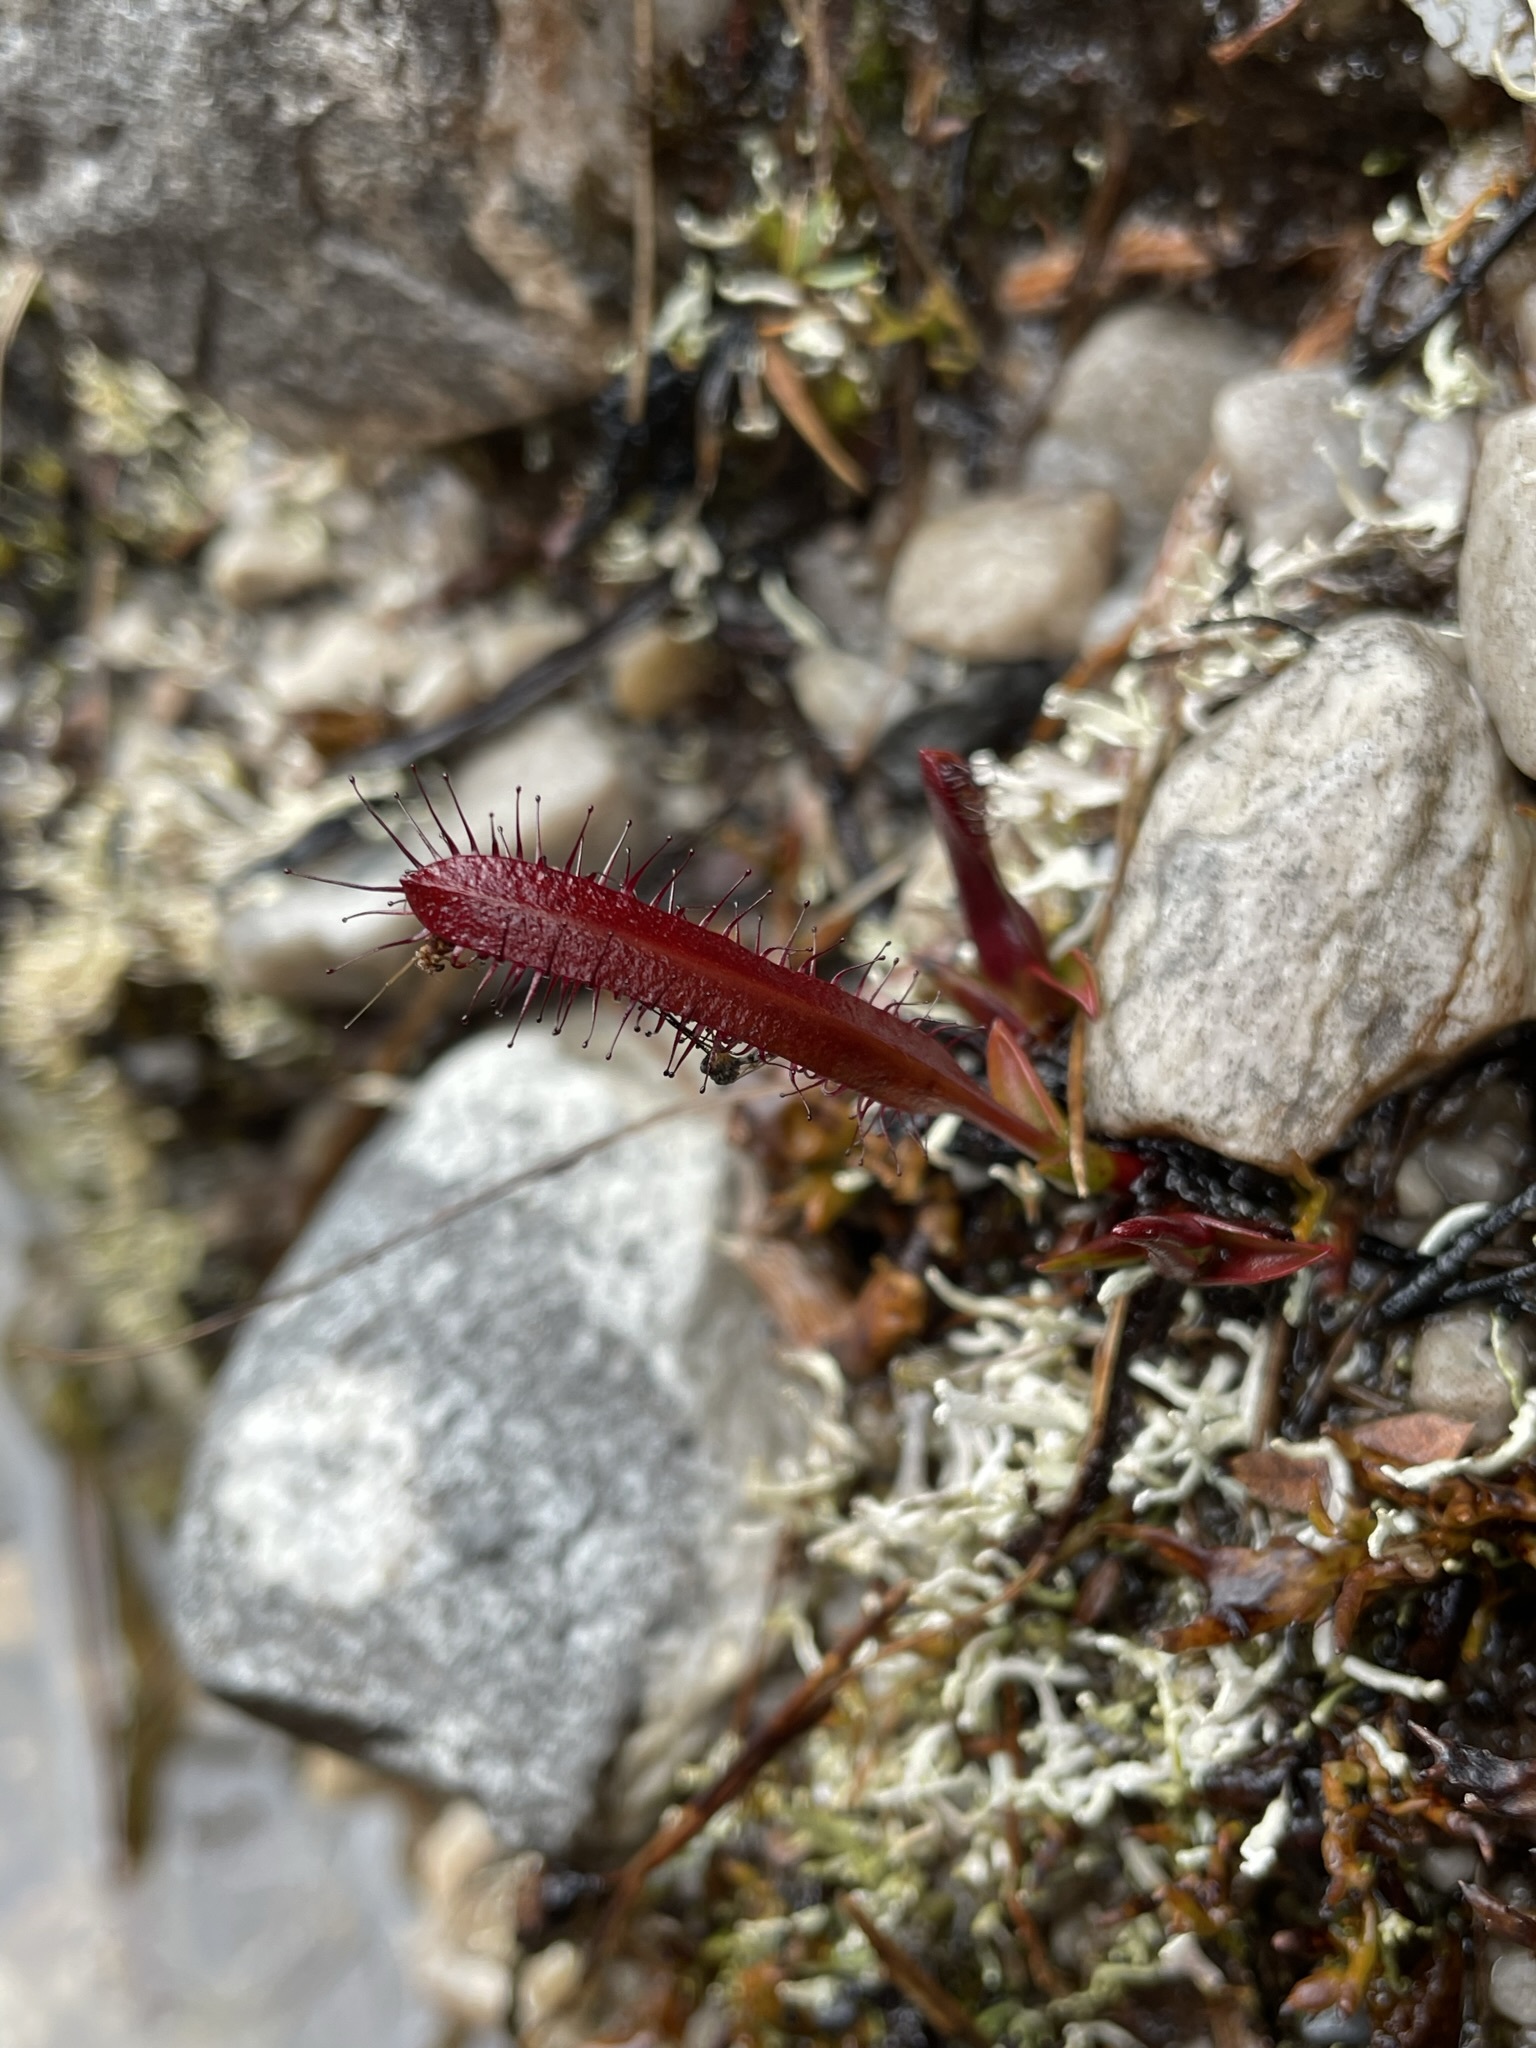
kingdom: Plantae
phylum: Tracheophyta
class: Magnoliopsida
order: Caryophyllales
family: Droseraceae
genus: Drosera
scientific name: Drosera murfetii
